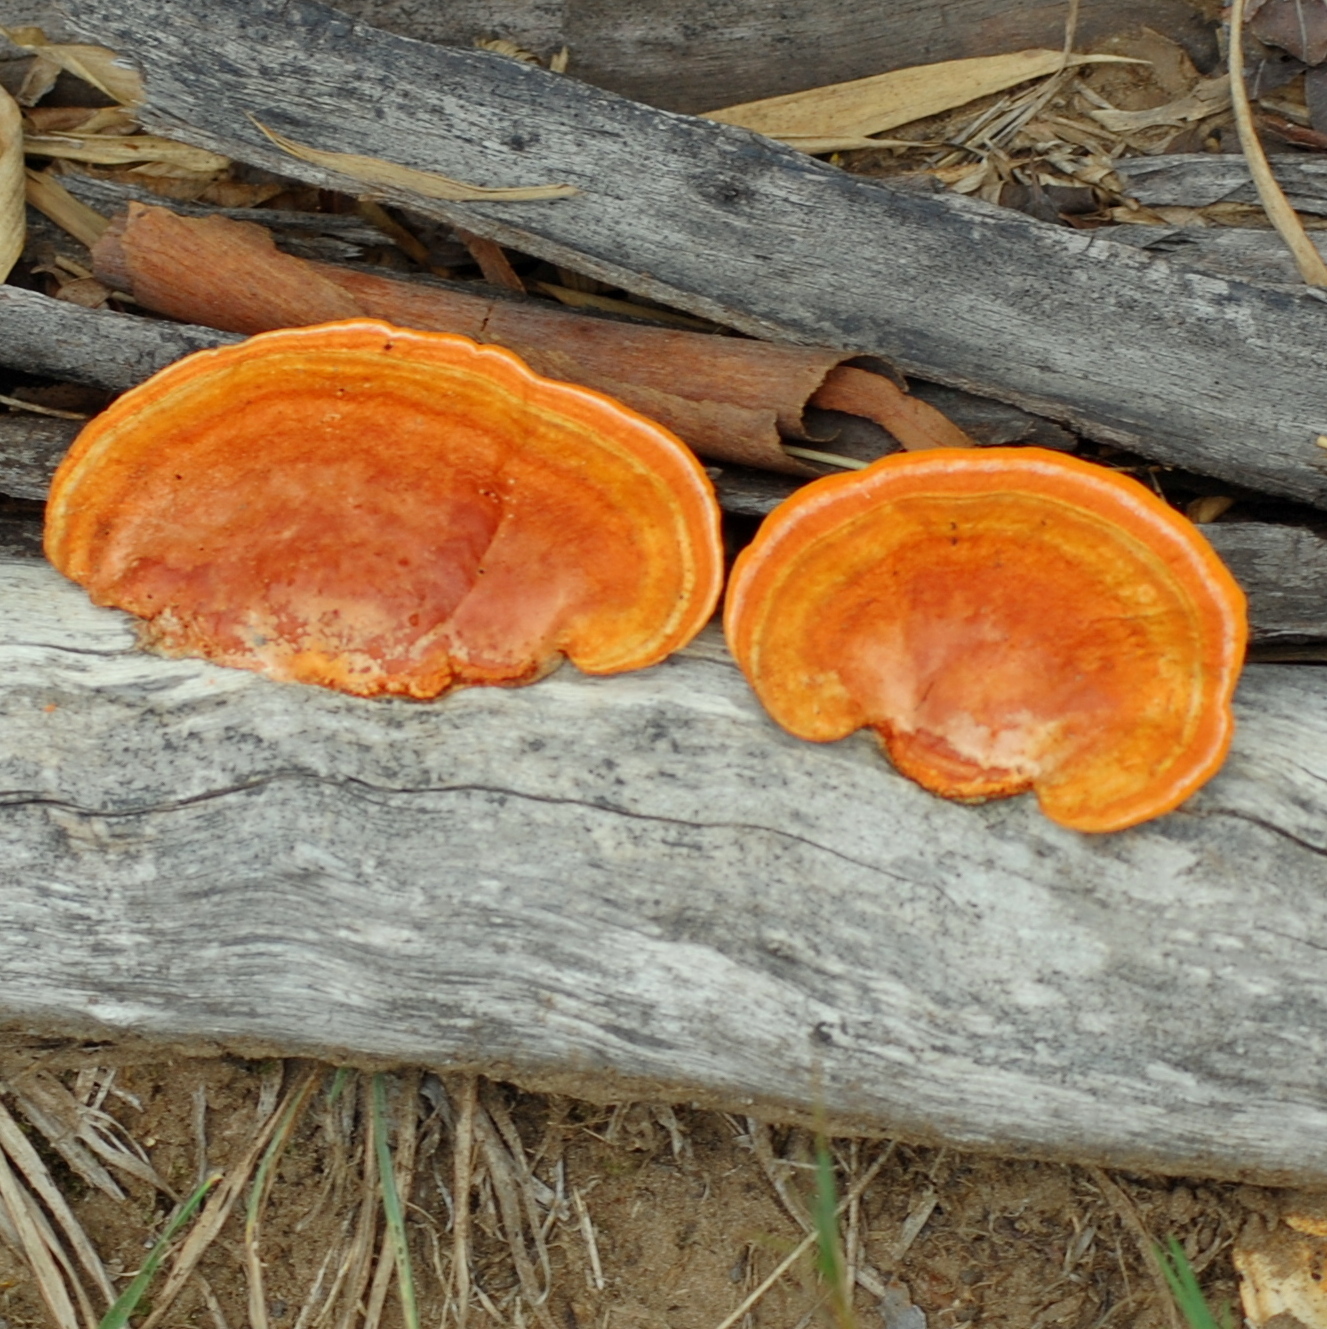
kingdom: Fungi
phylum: Basidiomycota
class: Agaricomycetes
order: Polyporales
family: Polyporaceae
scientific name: Polyporaceae
